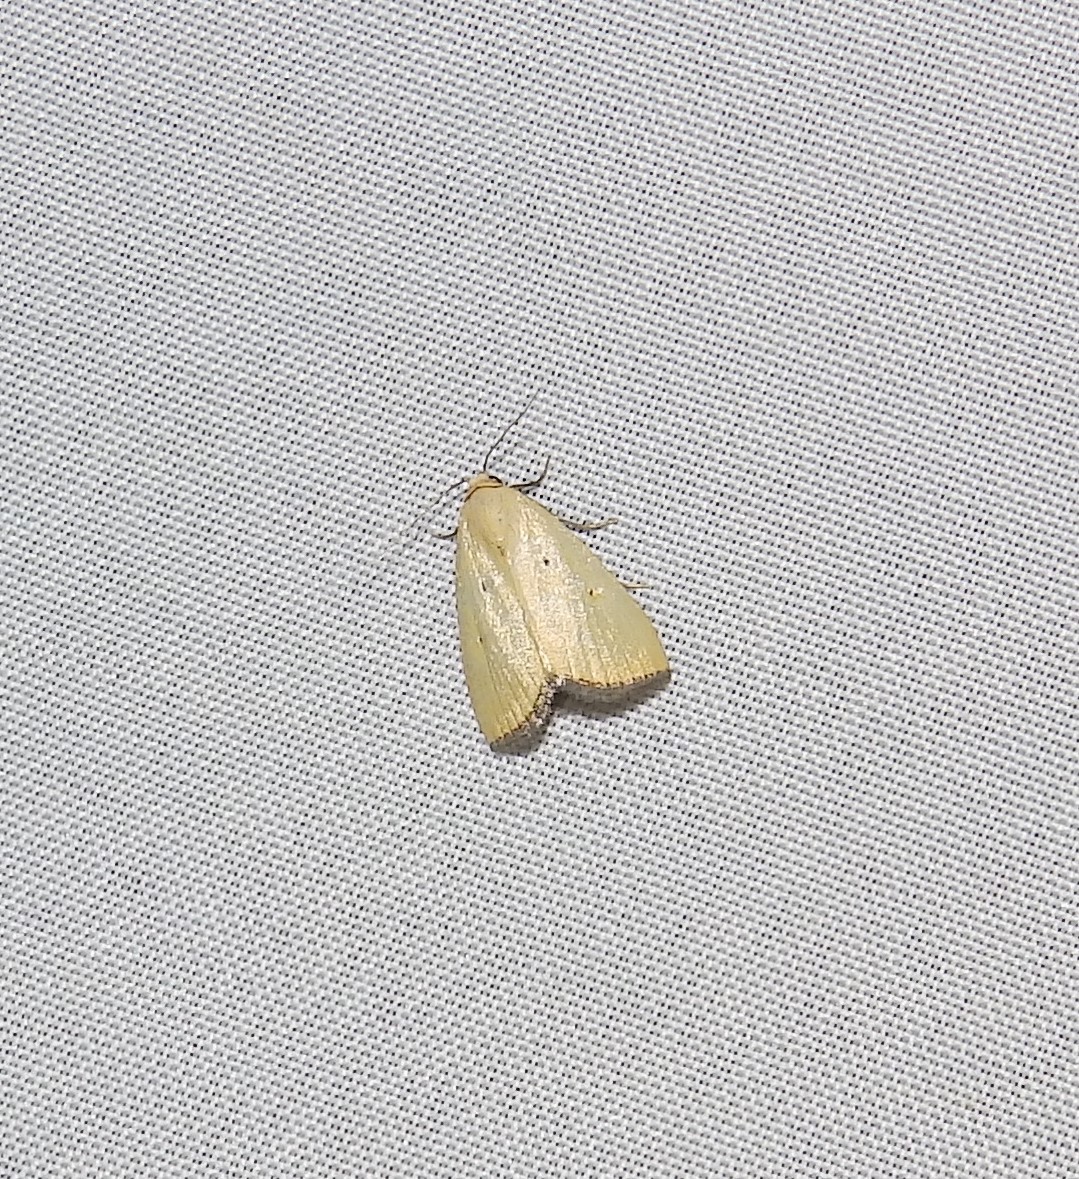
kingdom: Animalia
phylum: Arthropoda
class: Insecta
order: Lepidoptera
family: Noctuidae
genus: Marimatha
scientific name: Marimatha nigrofimbria
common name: Black-bordered lemon moth
